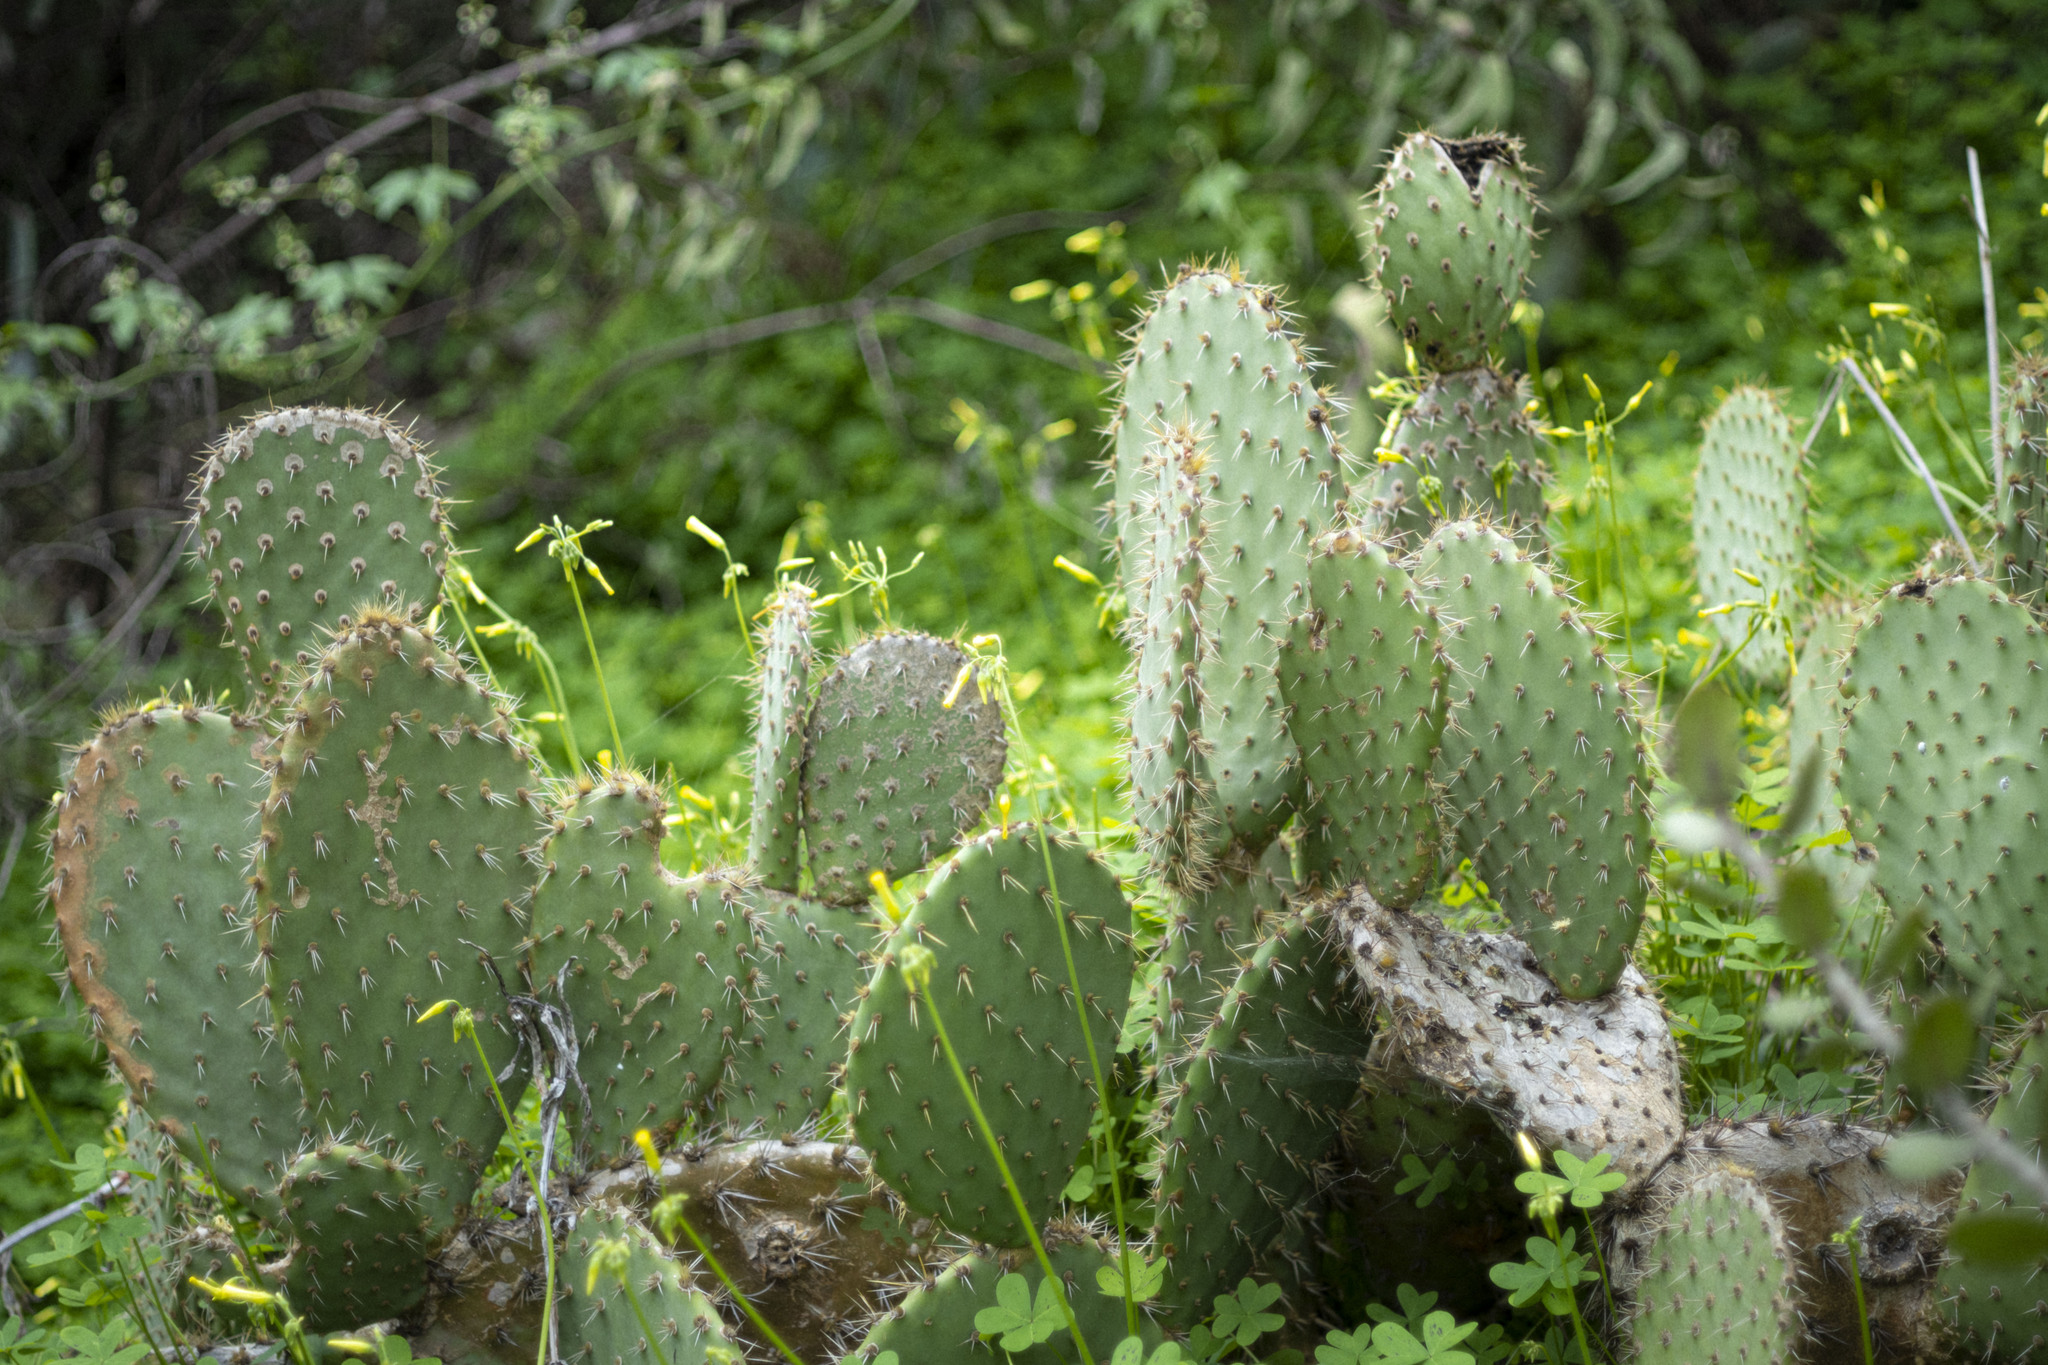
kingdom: Plantae
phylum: Tracheophyta
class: Magnoliopsida
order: Caryophyllales
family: Cactaceae
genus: Opuntia
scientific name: Opuntia oricola
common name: Chaparral prickly-pear
